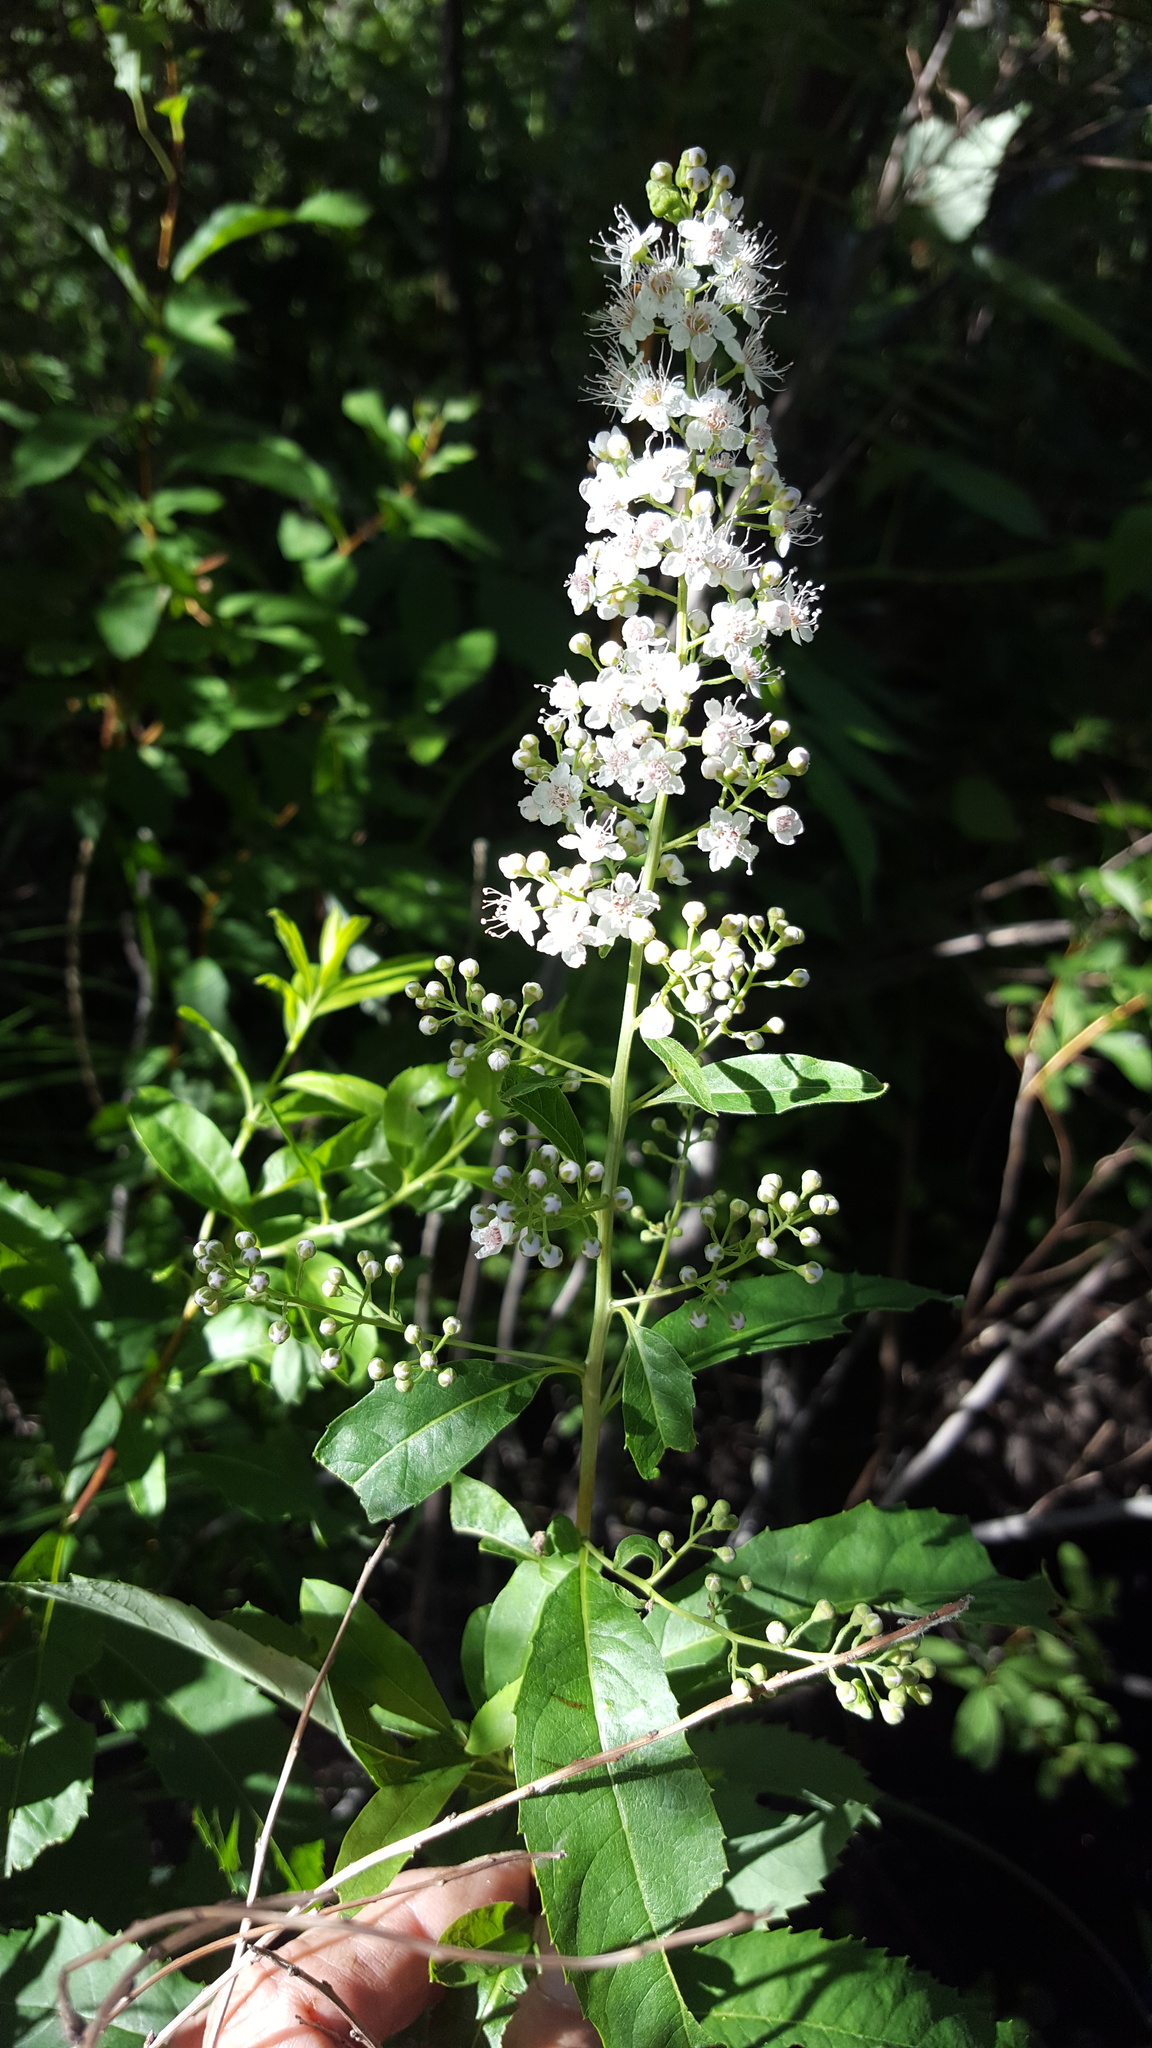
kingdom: Plantae
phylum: Tracheophyta
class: Magnoliopsida
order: Rosales
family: Rosaceae
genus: Spiraea
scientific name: Spiraea alba
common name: Pale bridewort
